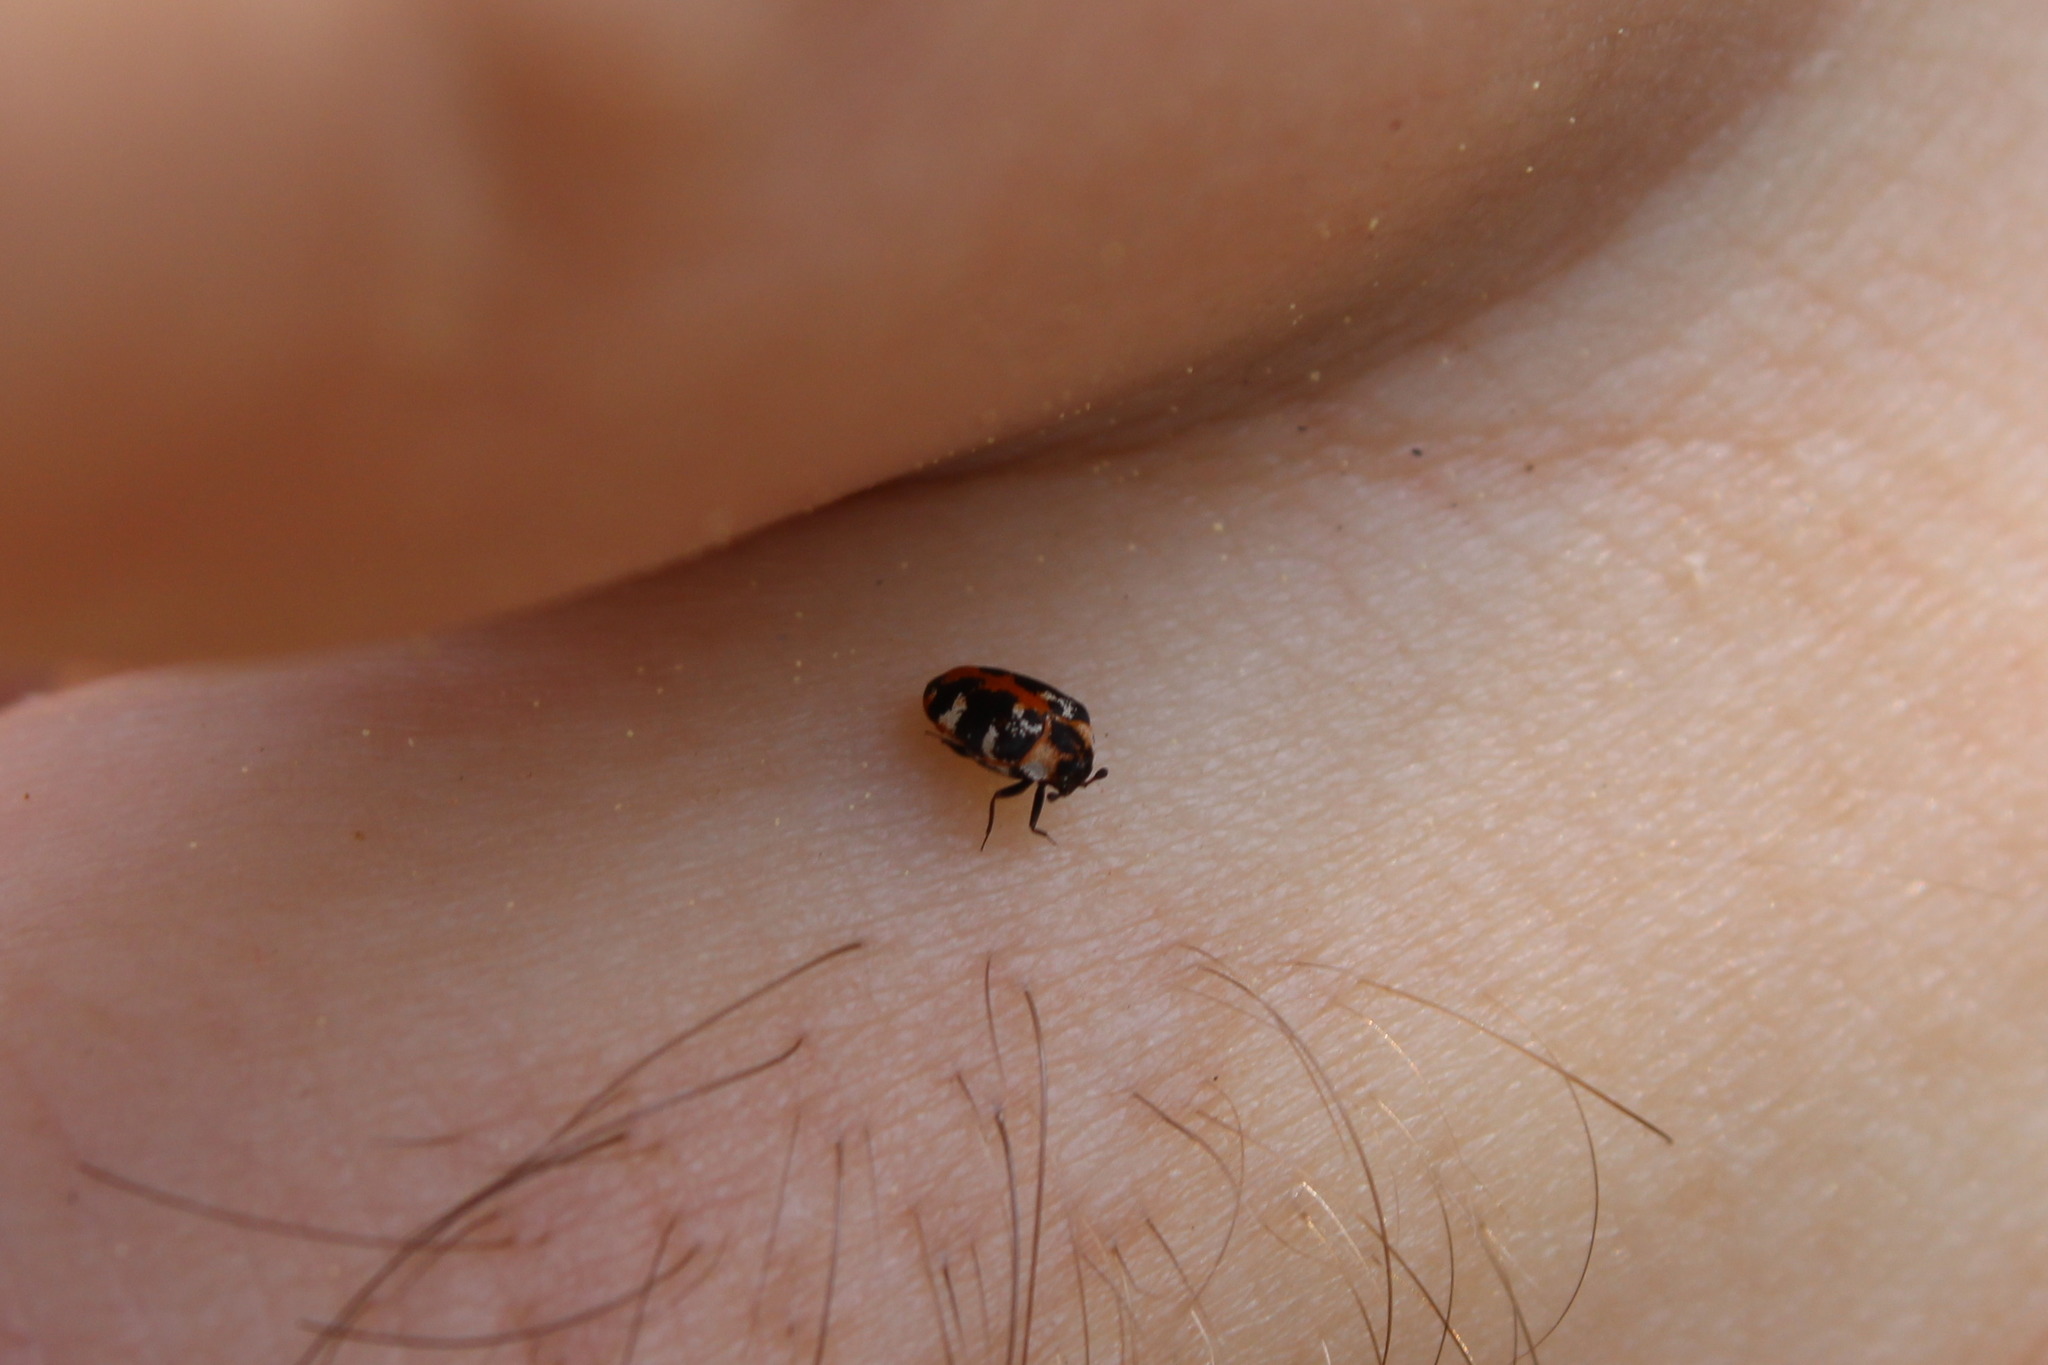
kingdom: Animalia
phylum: Arthropoda
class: Insecta
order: Coleoptera
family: Dermestidae
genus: Anthrenus
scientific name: Anthrenus scrophulariae
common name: Buffalo carpet beetle
